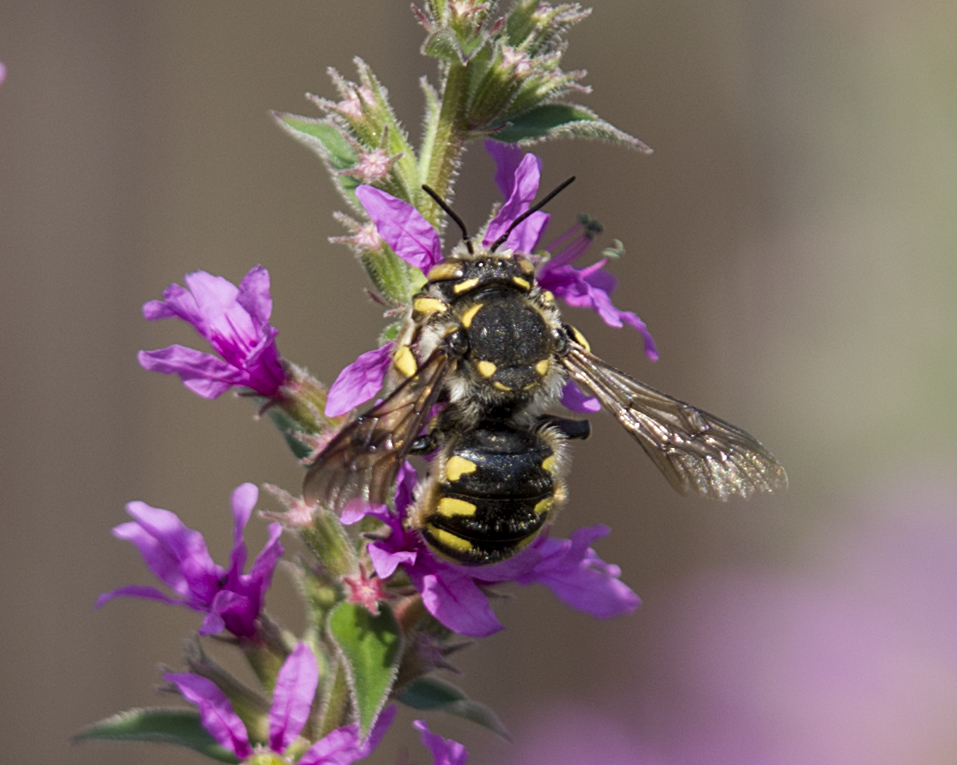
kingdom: Animalia
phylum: Arthropoda
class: Insecta
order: Hymenoptera
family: Megachilidae
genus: Anthidium
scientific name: Anthidium florentinum
